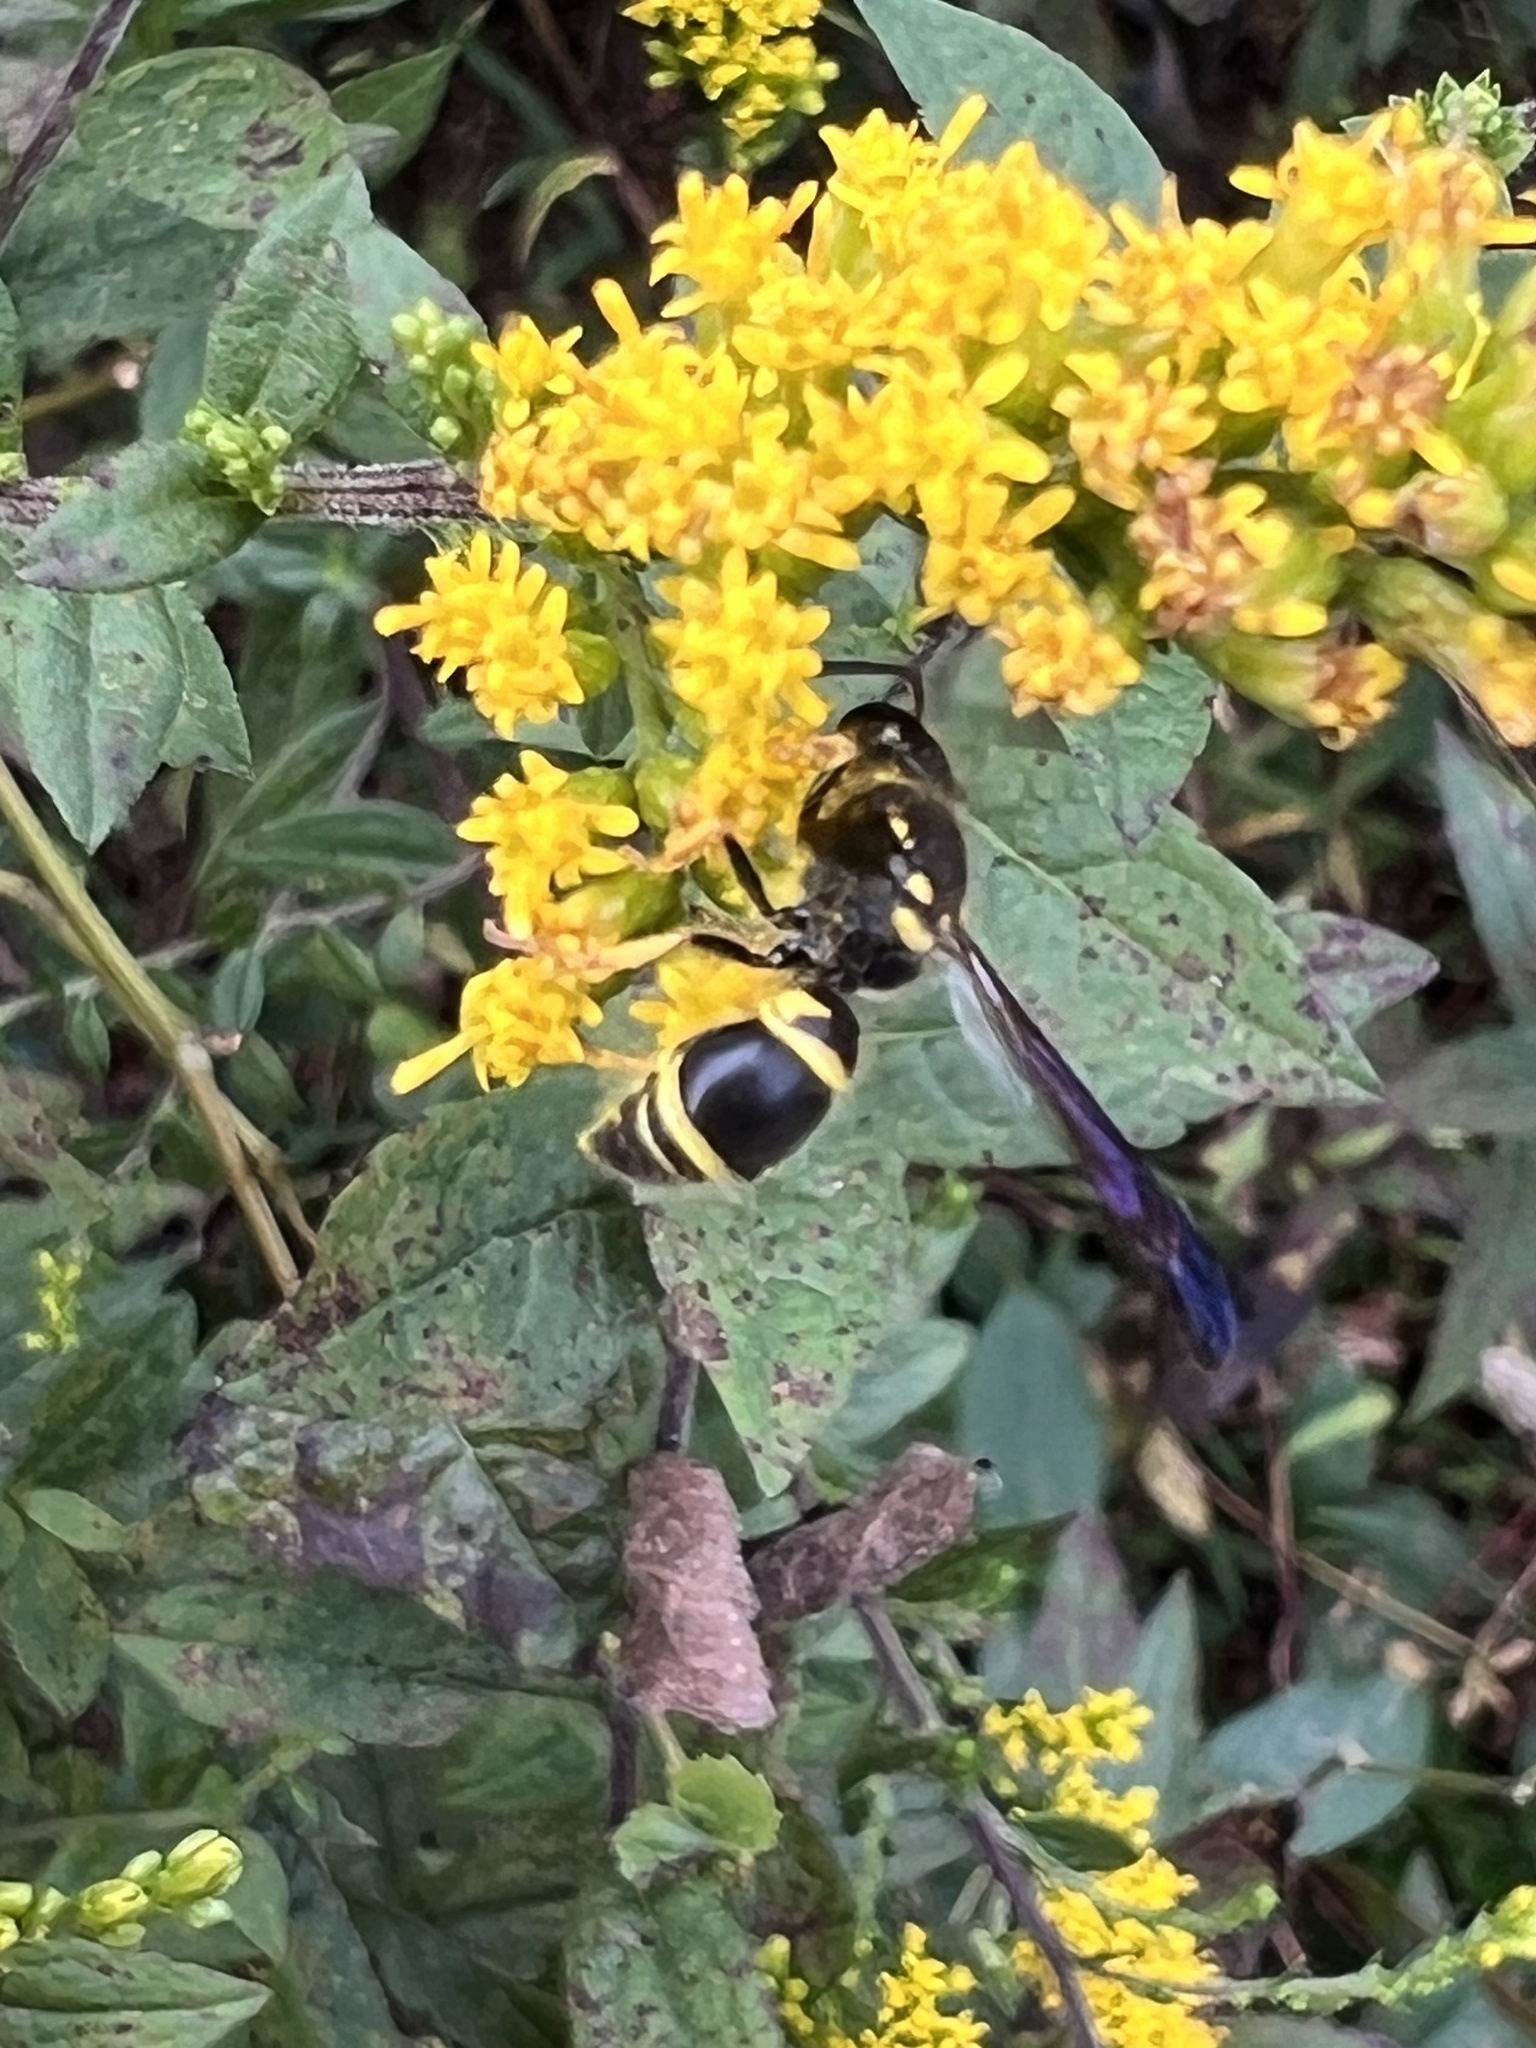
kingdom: Animalia
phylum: Arthropoda
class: Insecta
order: Hymenoptera
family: Vespidae
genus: Ancistrocerus
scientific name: Ancistrocerus campestris
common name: Smiling mason wasp
